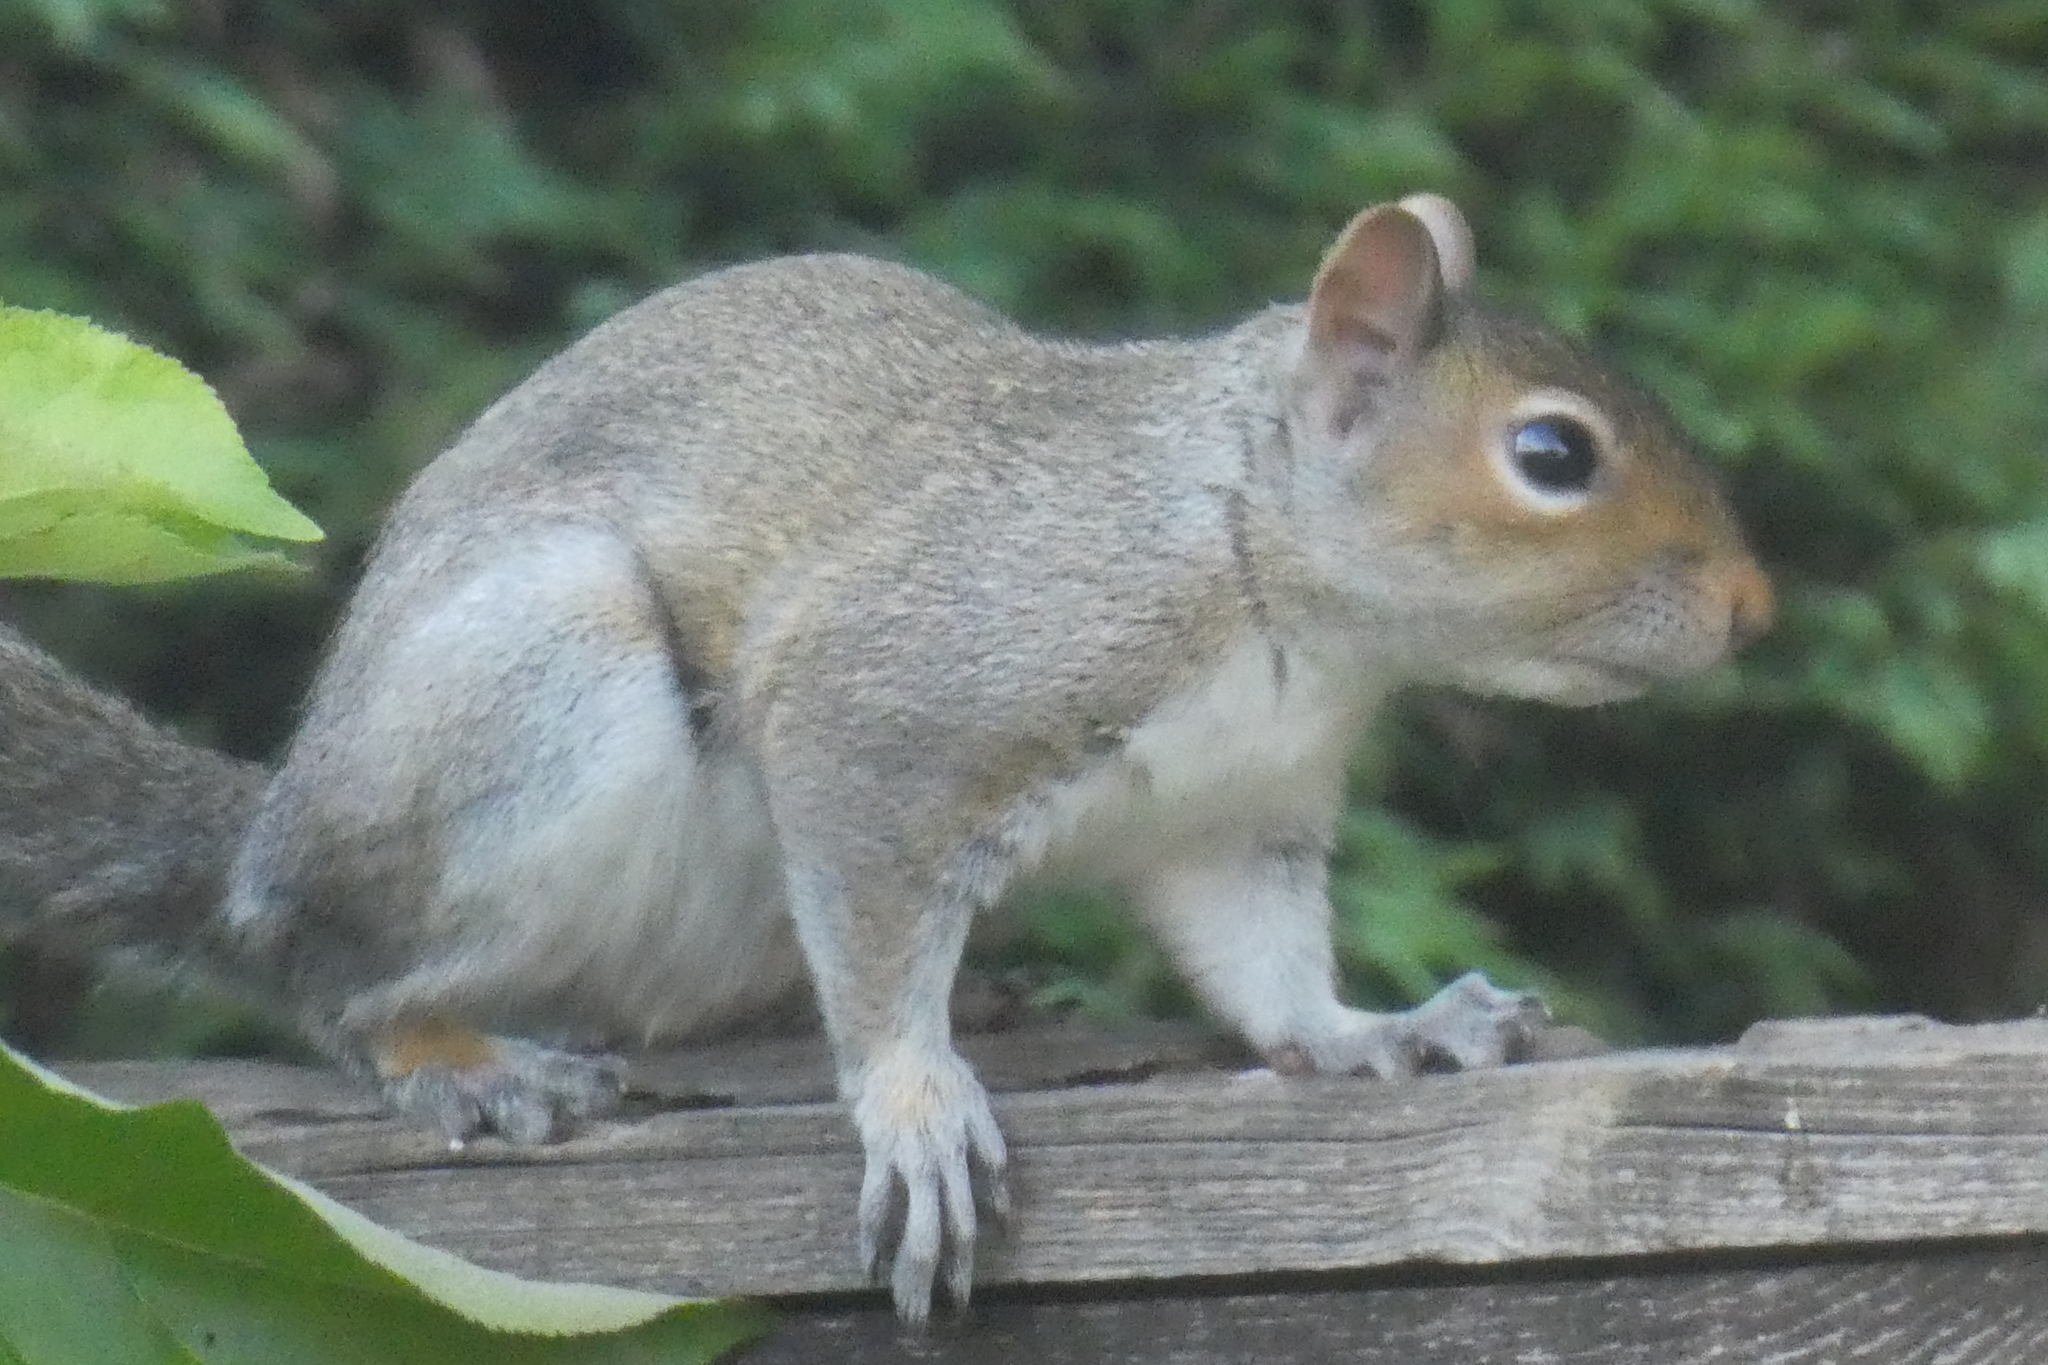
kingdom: Animalia
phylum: Chordata
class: Mammalia
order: Rodentia
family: Sciuridae
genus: Sciurus
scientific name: Sciurus carolinensis
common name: Eastern gray squirrel
